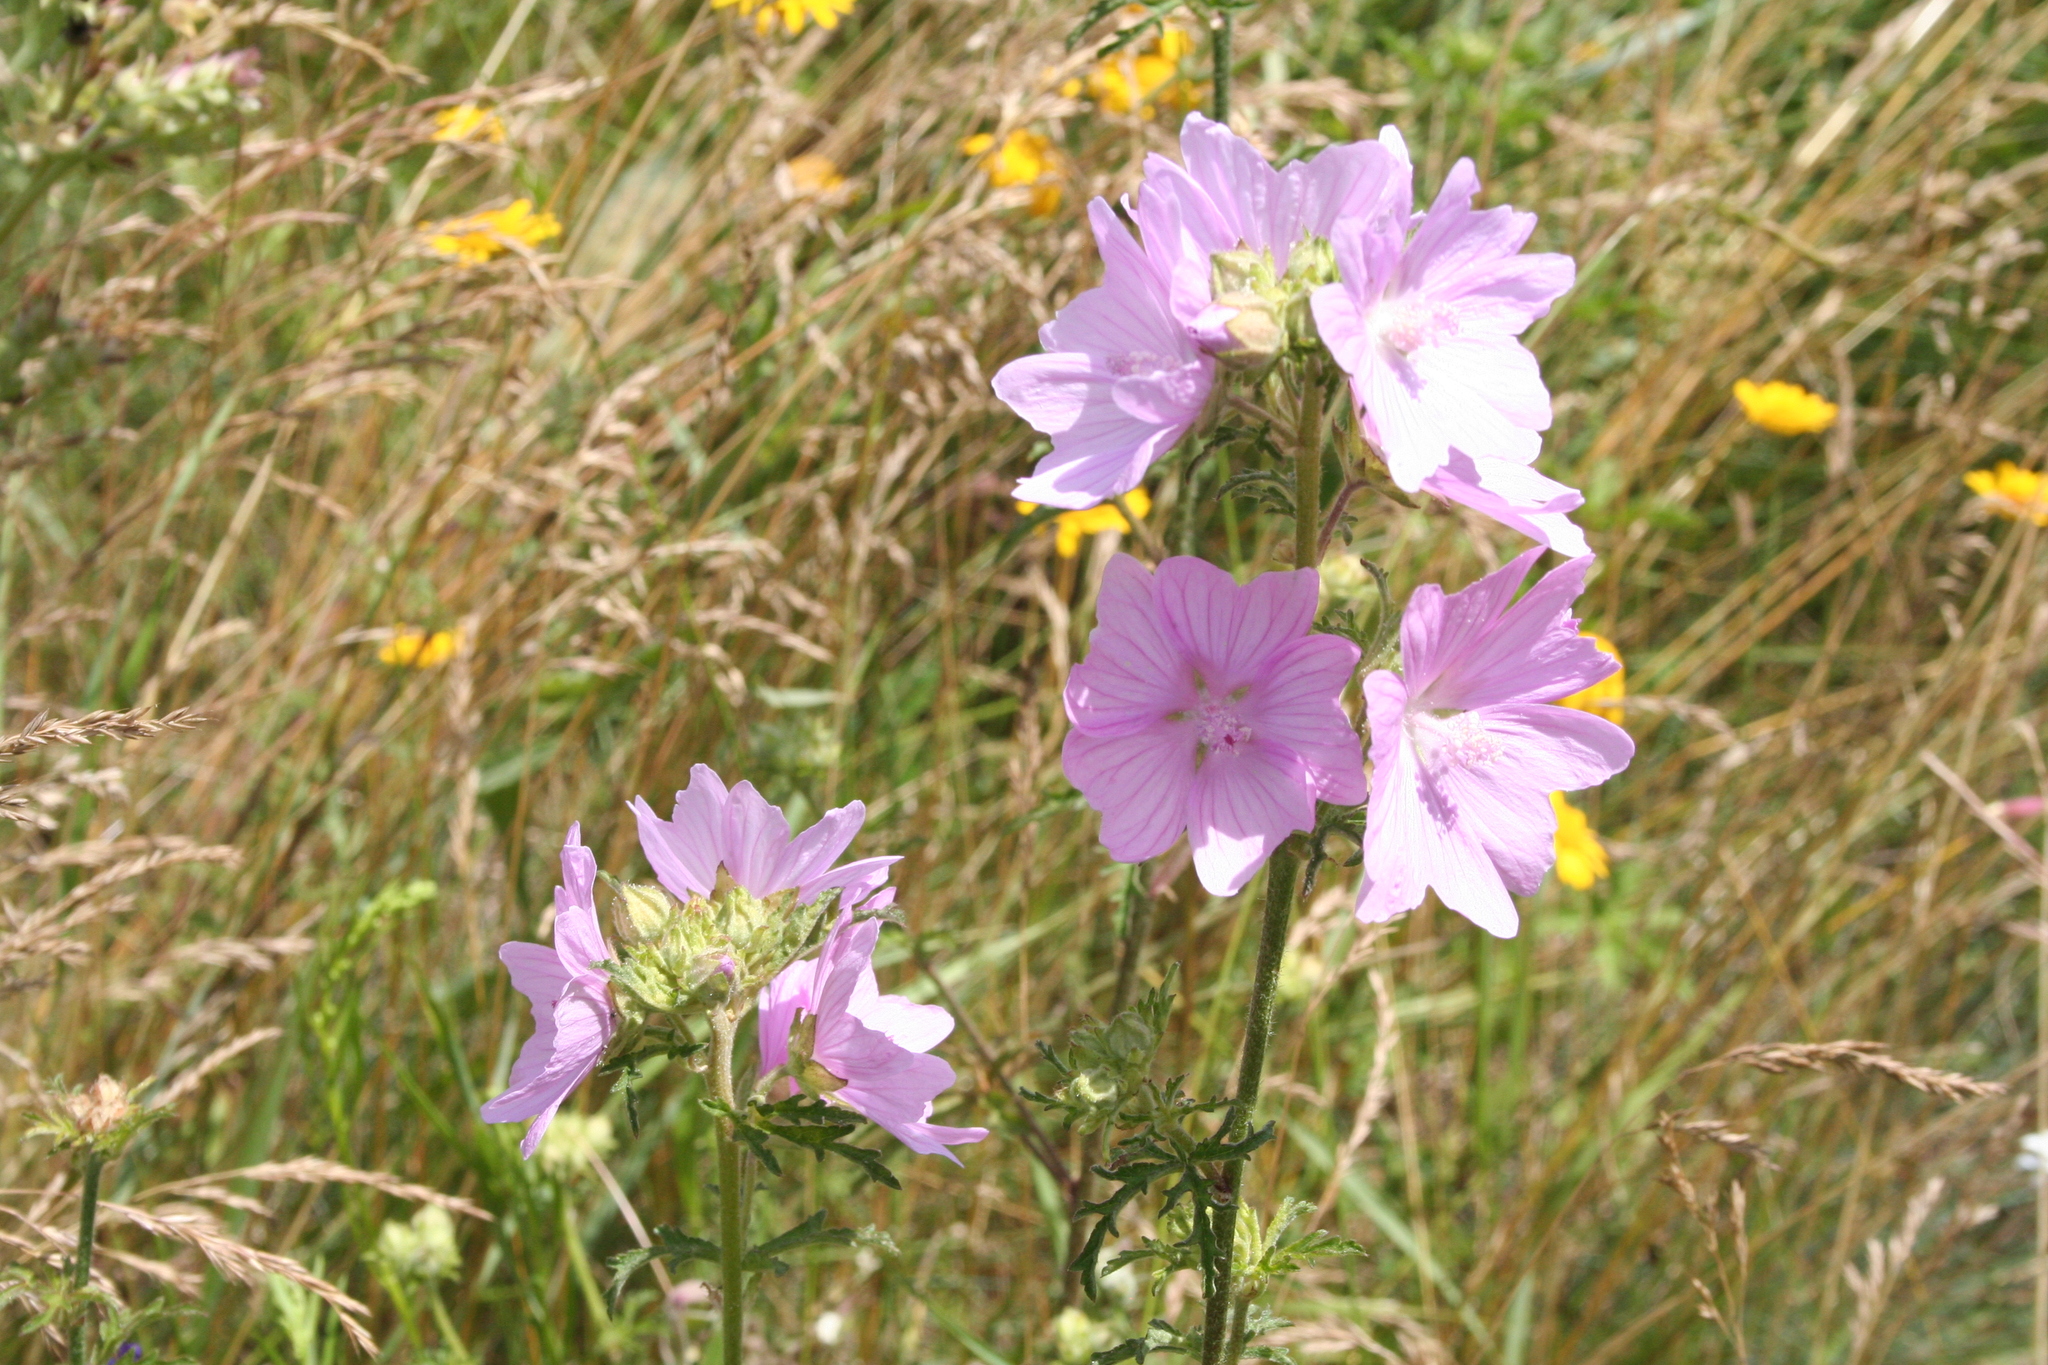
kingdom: Plantae
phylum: Tracheophyta
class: Magnoliopsida
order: Malvales
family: Malvaceae
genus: Malva
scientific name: Malva alcea
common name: Greater musk-mallow
